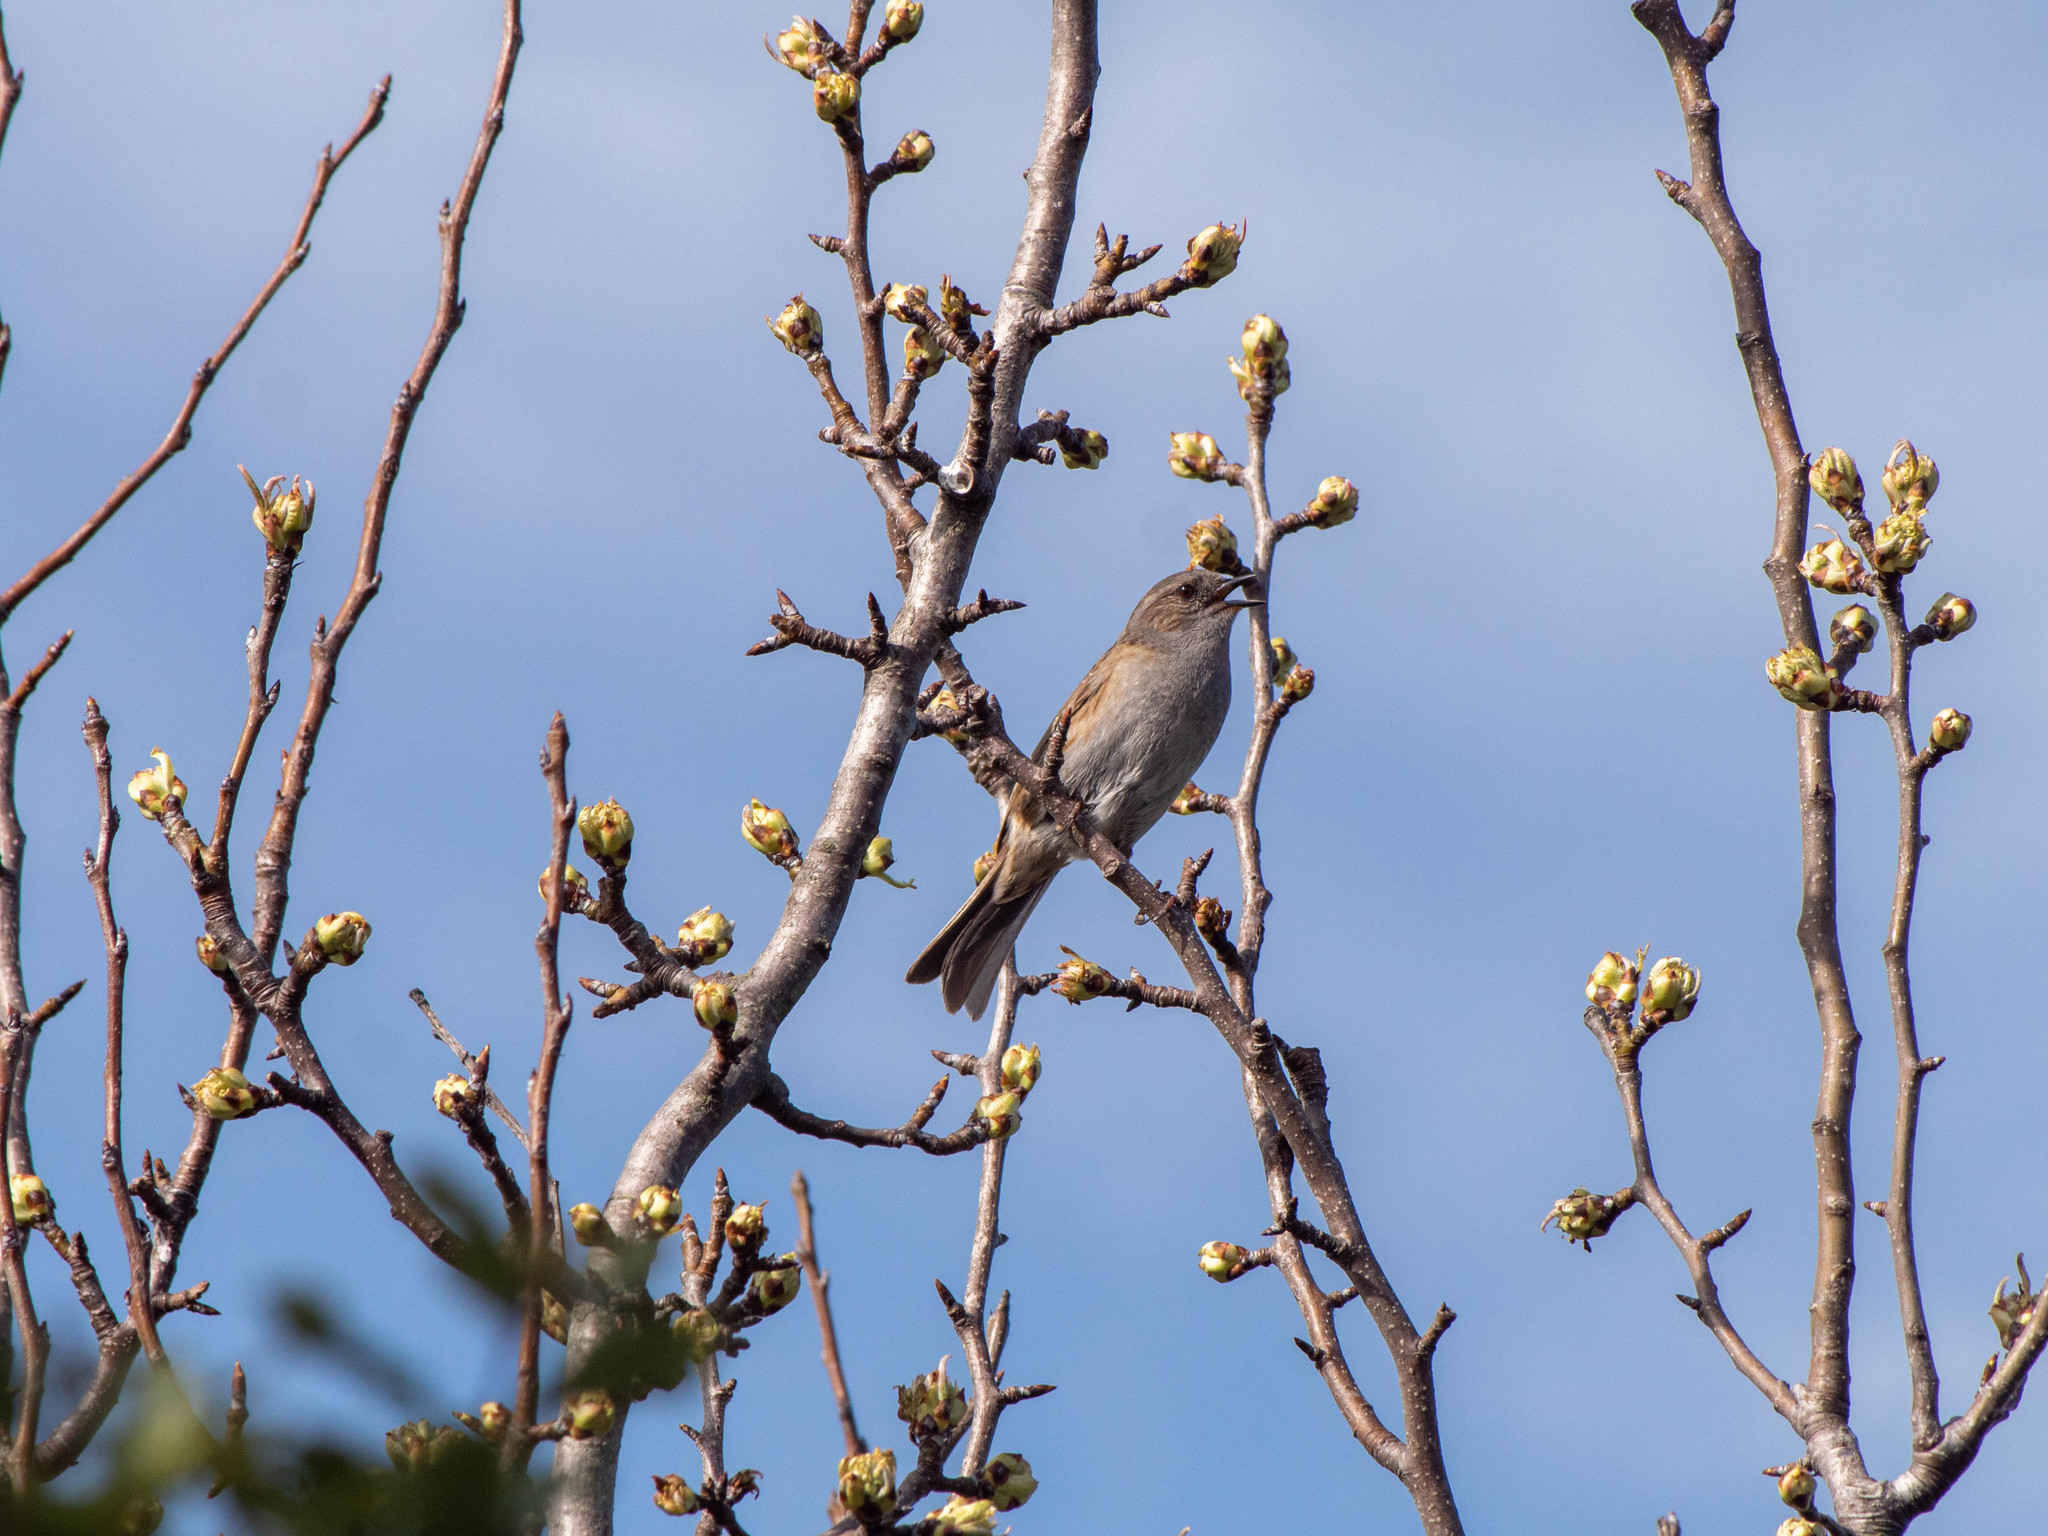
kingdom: Animalia
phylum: Chordata
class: Aves
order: Passeriformes
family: Prunellidae
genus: Prunella
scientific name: Prunella modularis
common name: Dunnock
